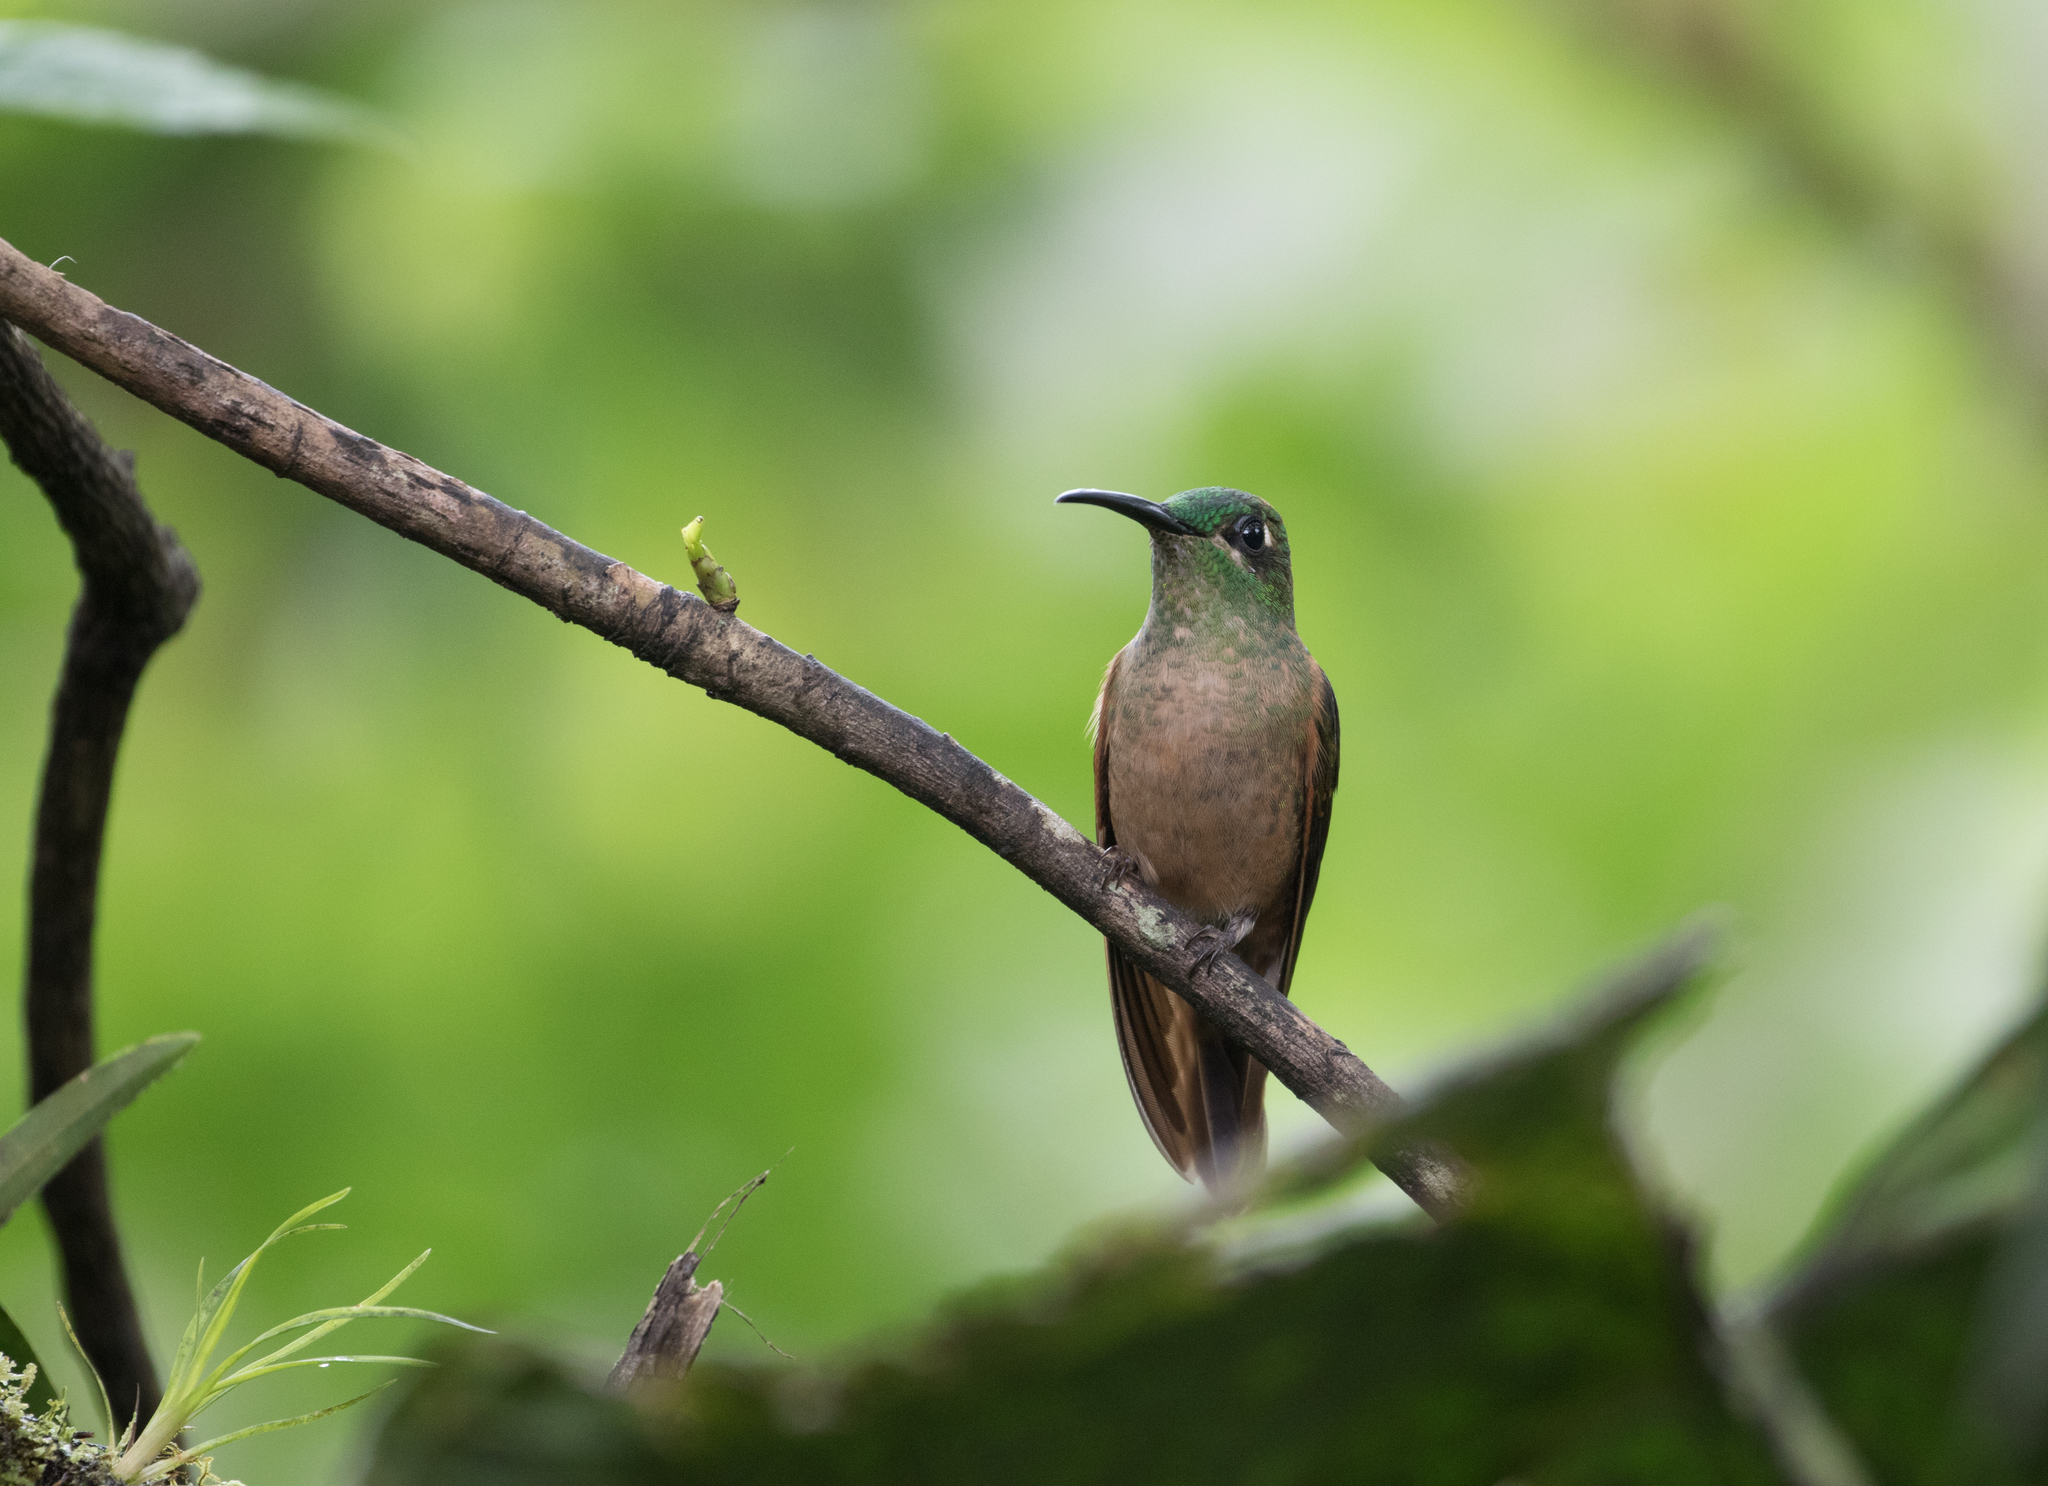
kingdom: Animalia
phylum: Chordata
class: Aves
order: Apodiformes
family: Trochilidae
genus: Heliodoxa
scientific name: Heliodoxa rubinoides
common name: Fawn-breasted brilliant
